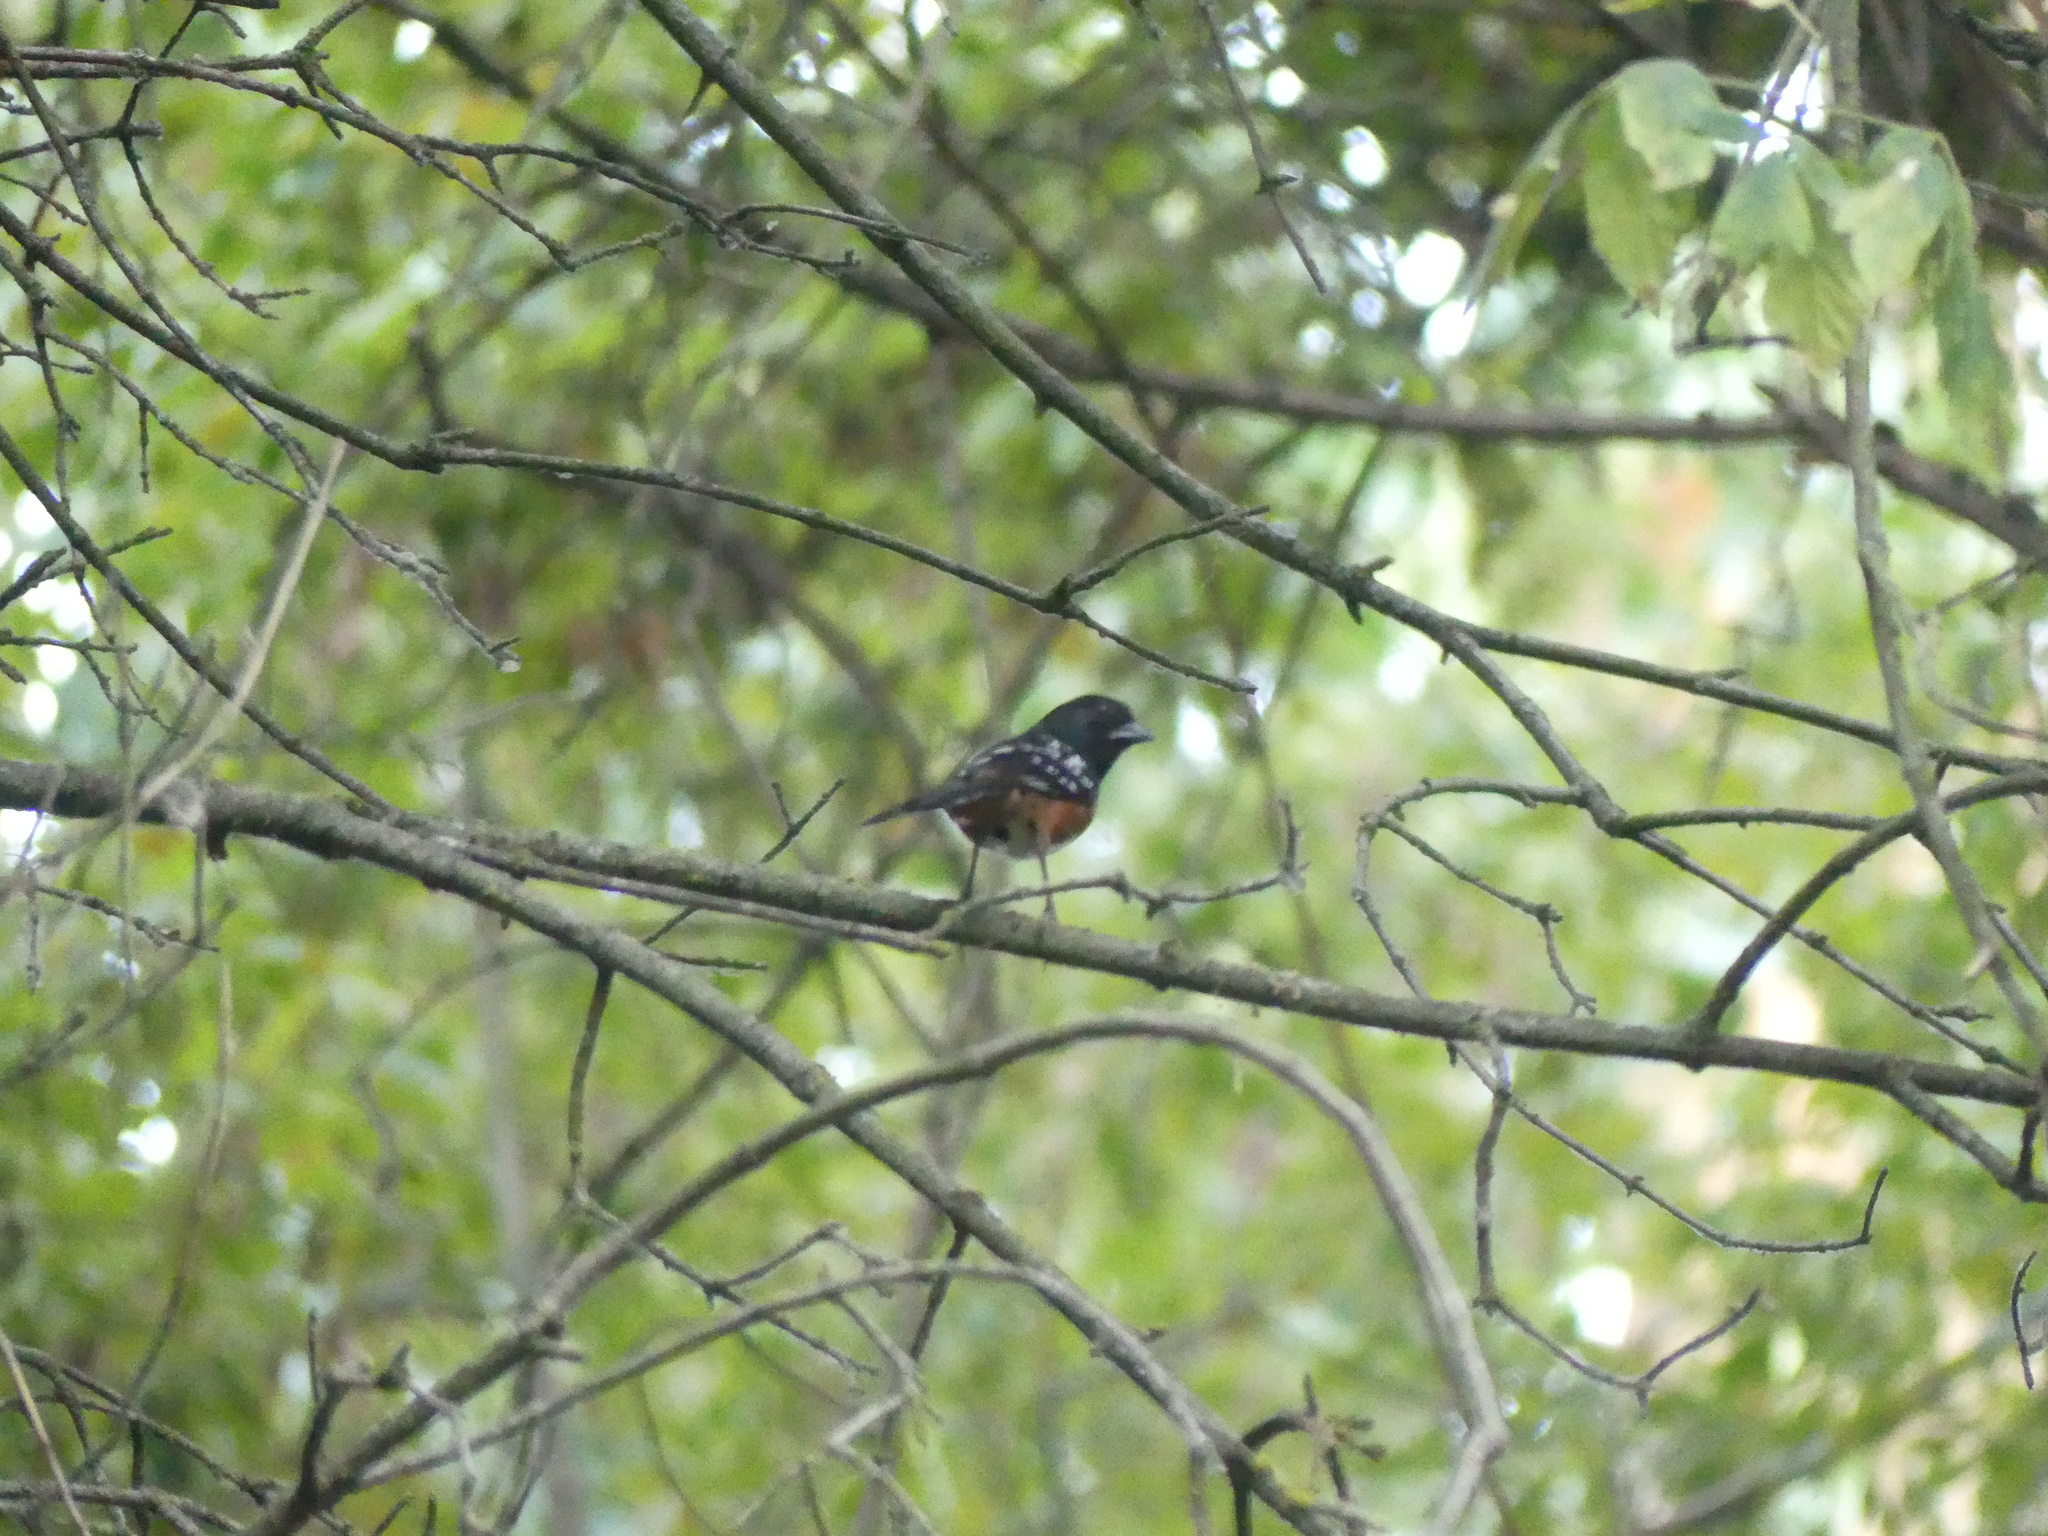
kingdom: Animalia
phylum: Chordata
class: Aves
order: Passeriformes
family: Passerellidae
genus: Pipilo
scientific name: Pipilo maculatus
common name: Spotted towhee
